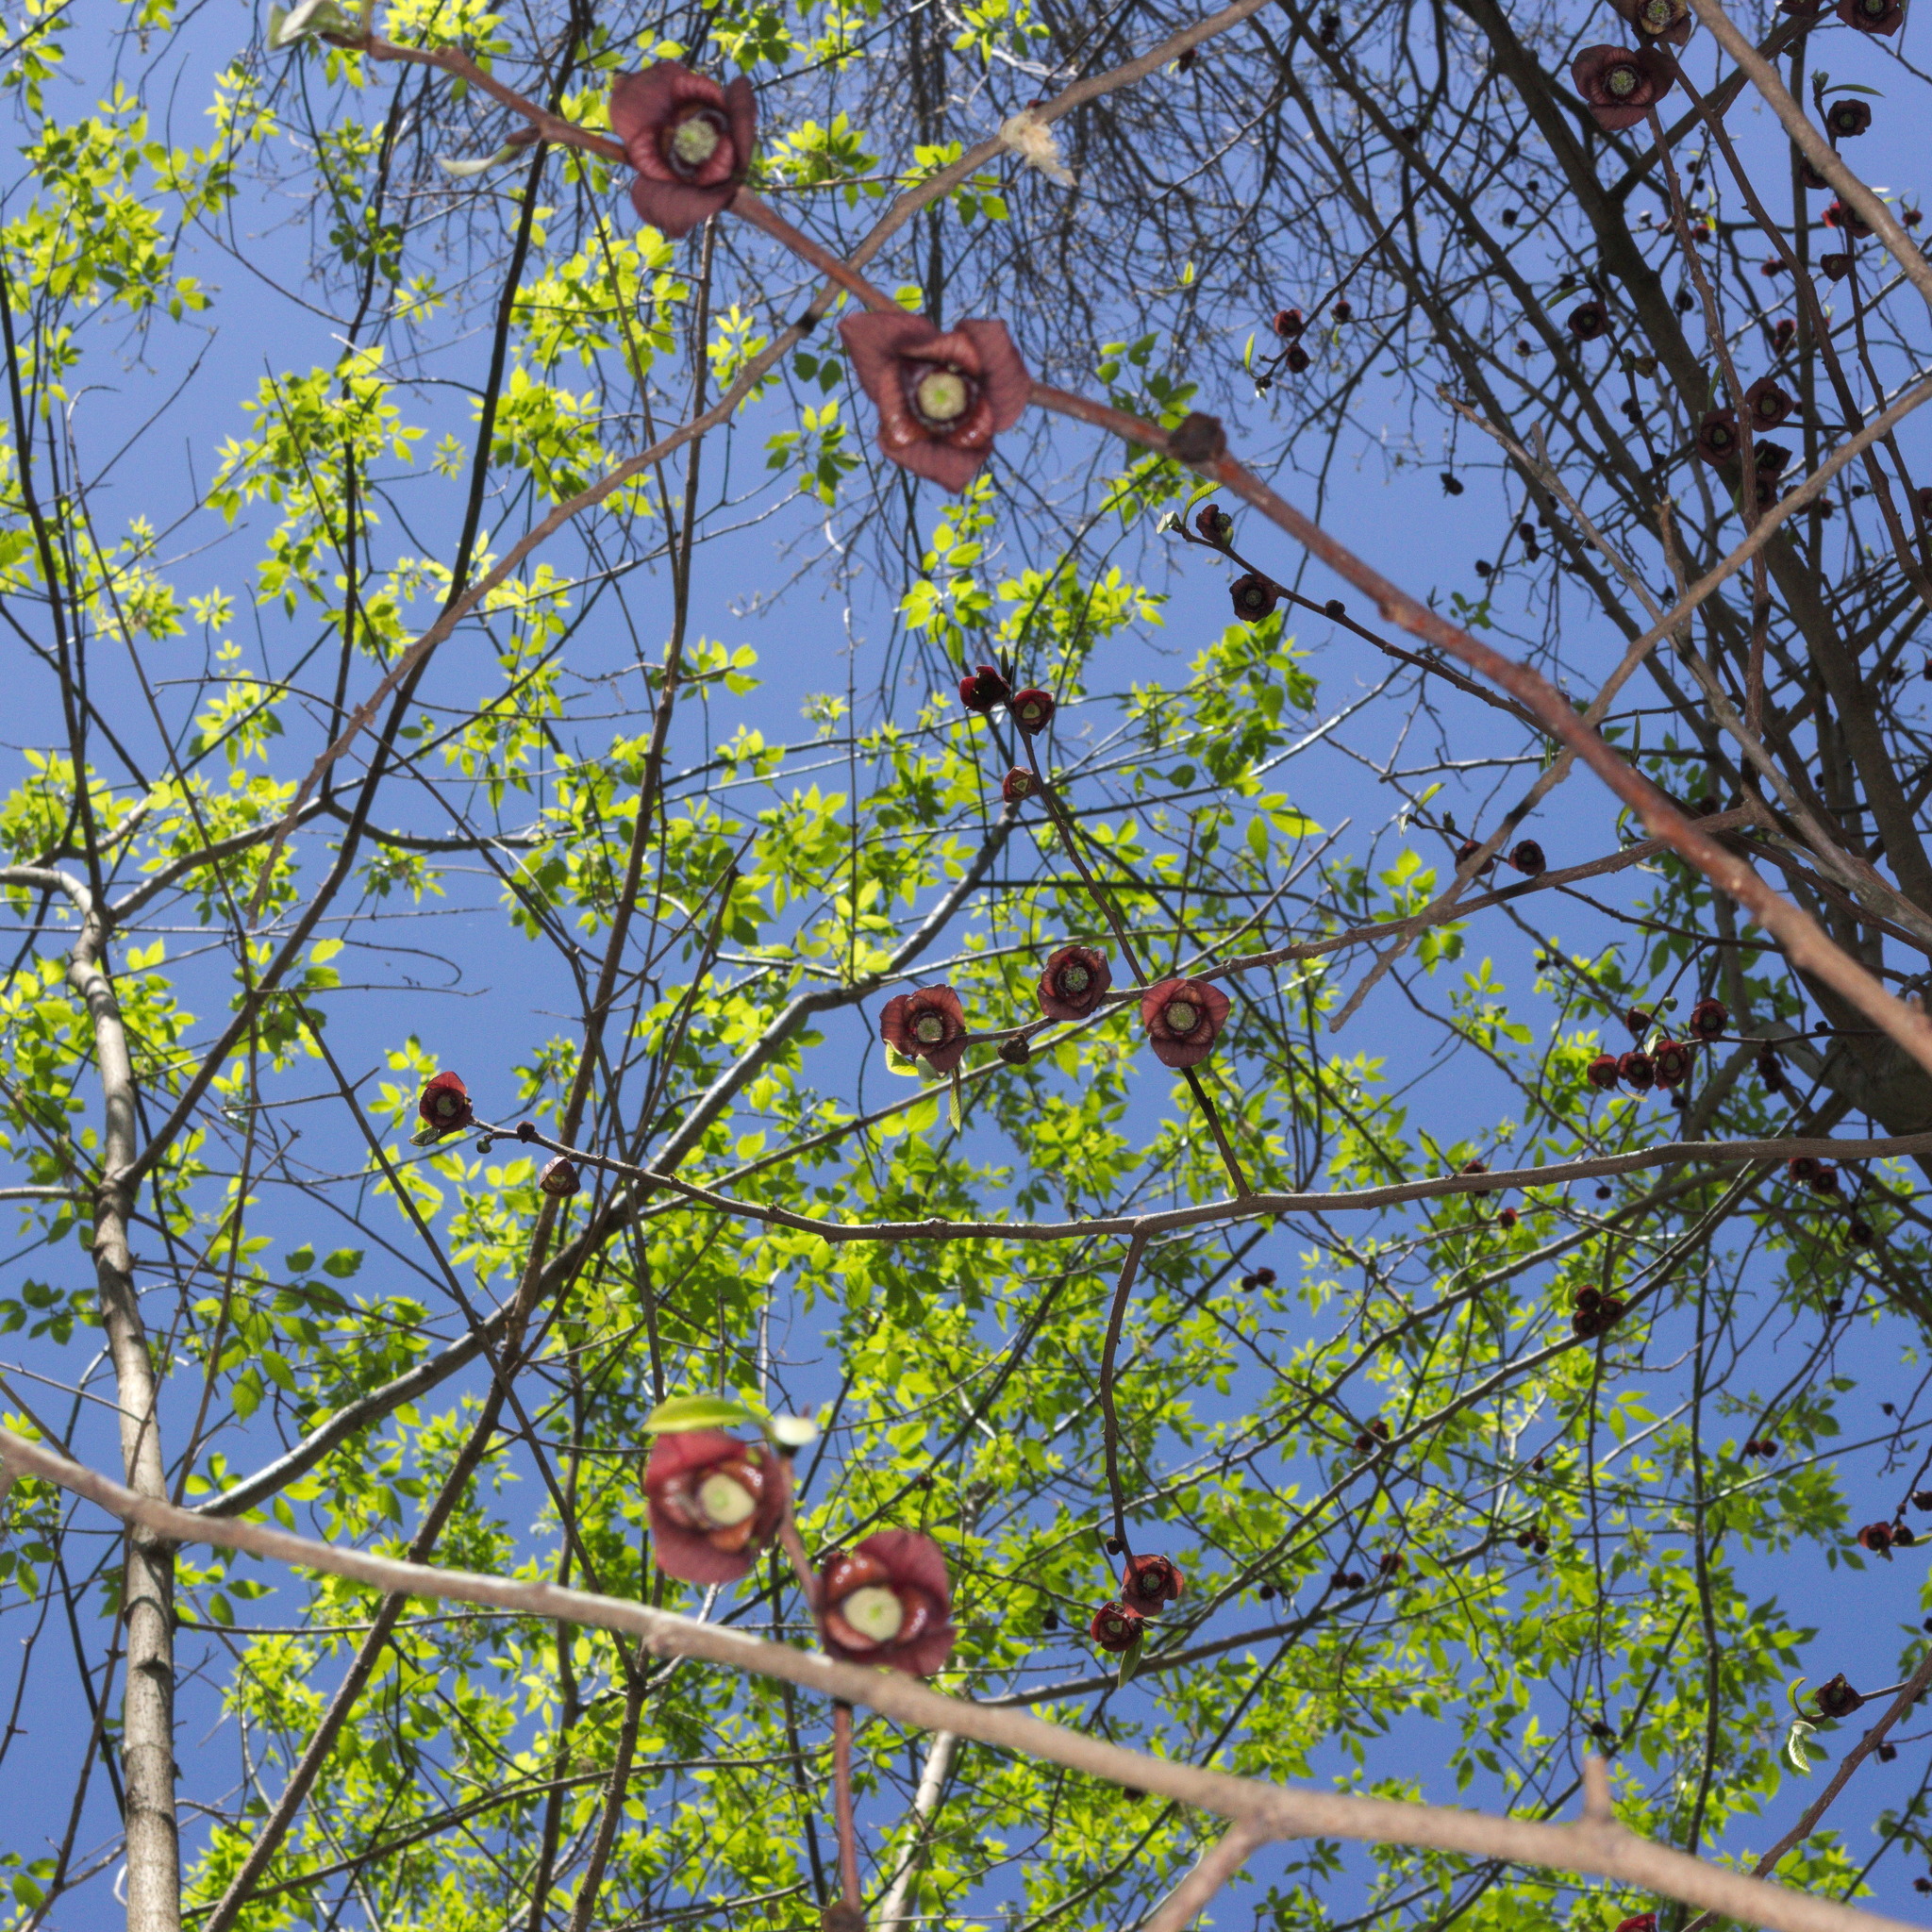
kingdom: Plantae
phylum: Tracheophyta
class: Magnoliopsida
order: Magnoliales
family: Annonaceae
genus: Asimina
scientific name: Asimina triloba
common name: Dog-banana
